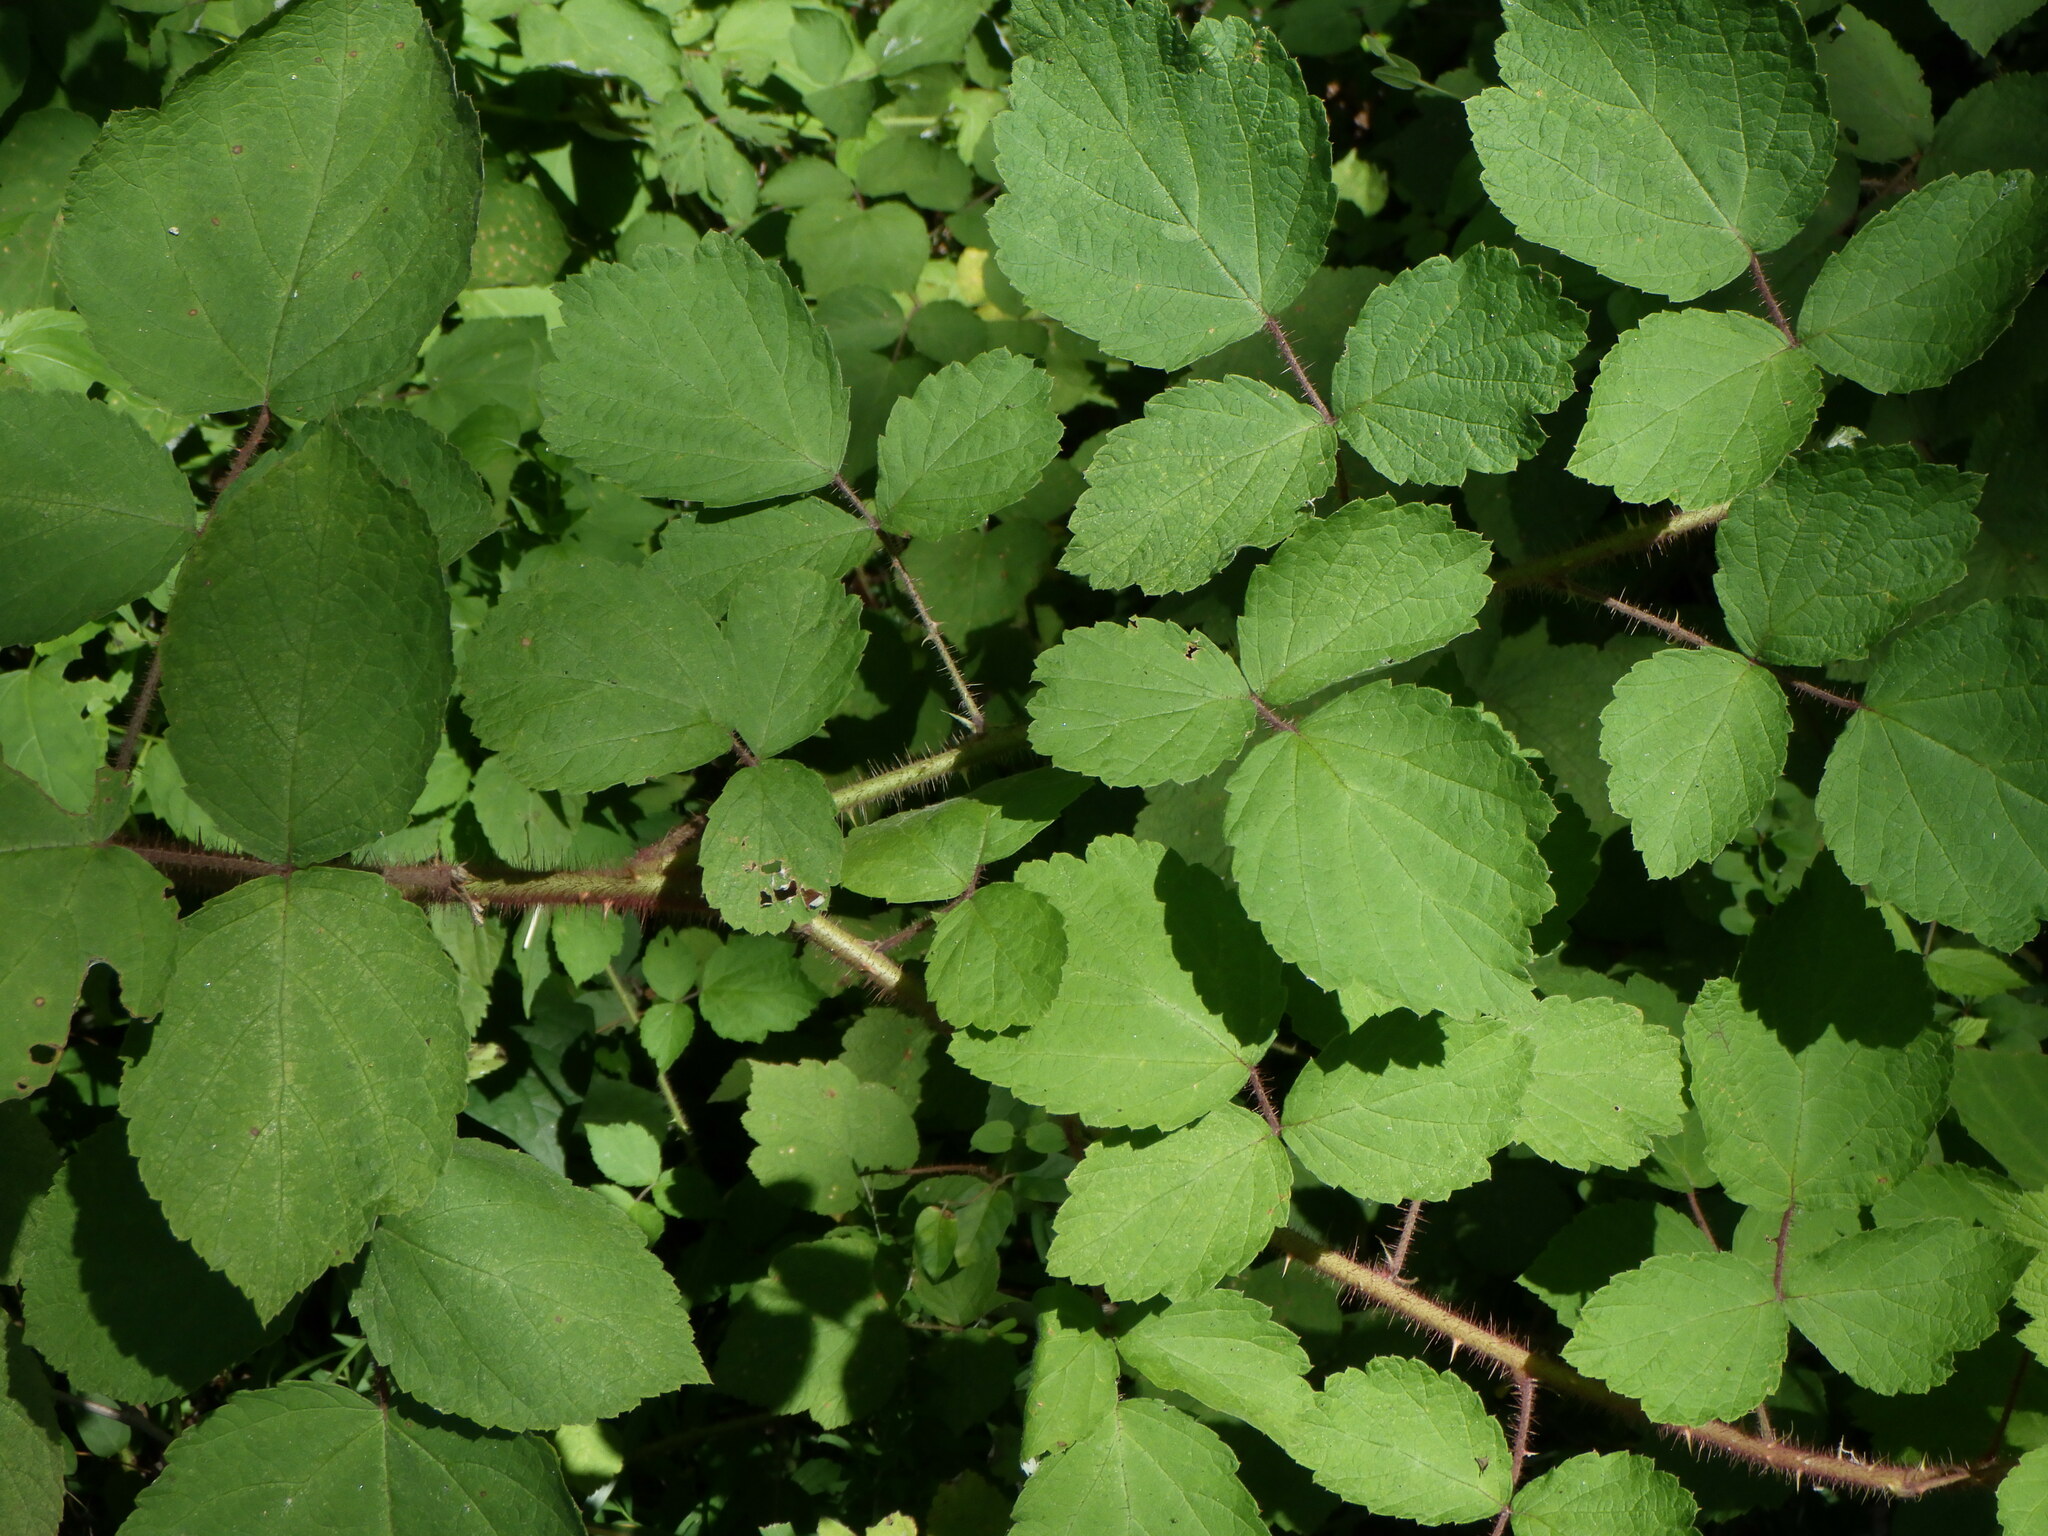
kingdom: Plantae
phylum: Tracheophyta
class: Magnoliopsida
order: Rosales
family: Rosaceae
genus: Rubus
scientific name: Rubus phoenicolasius
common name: Japanese wineberry
